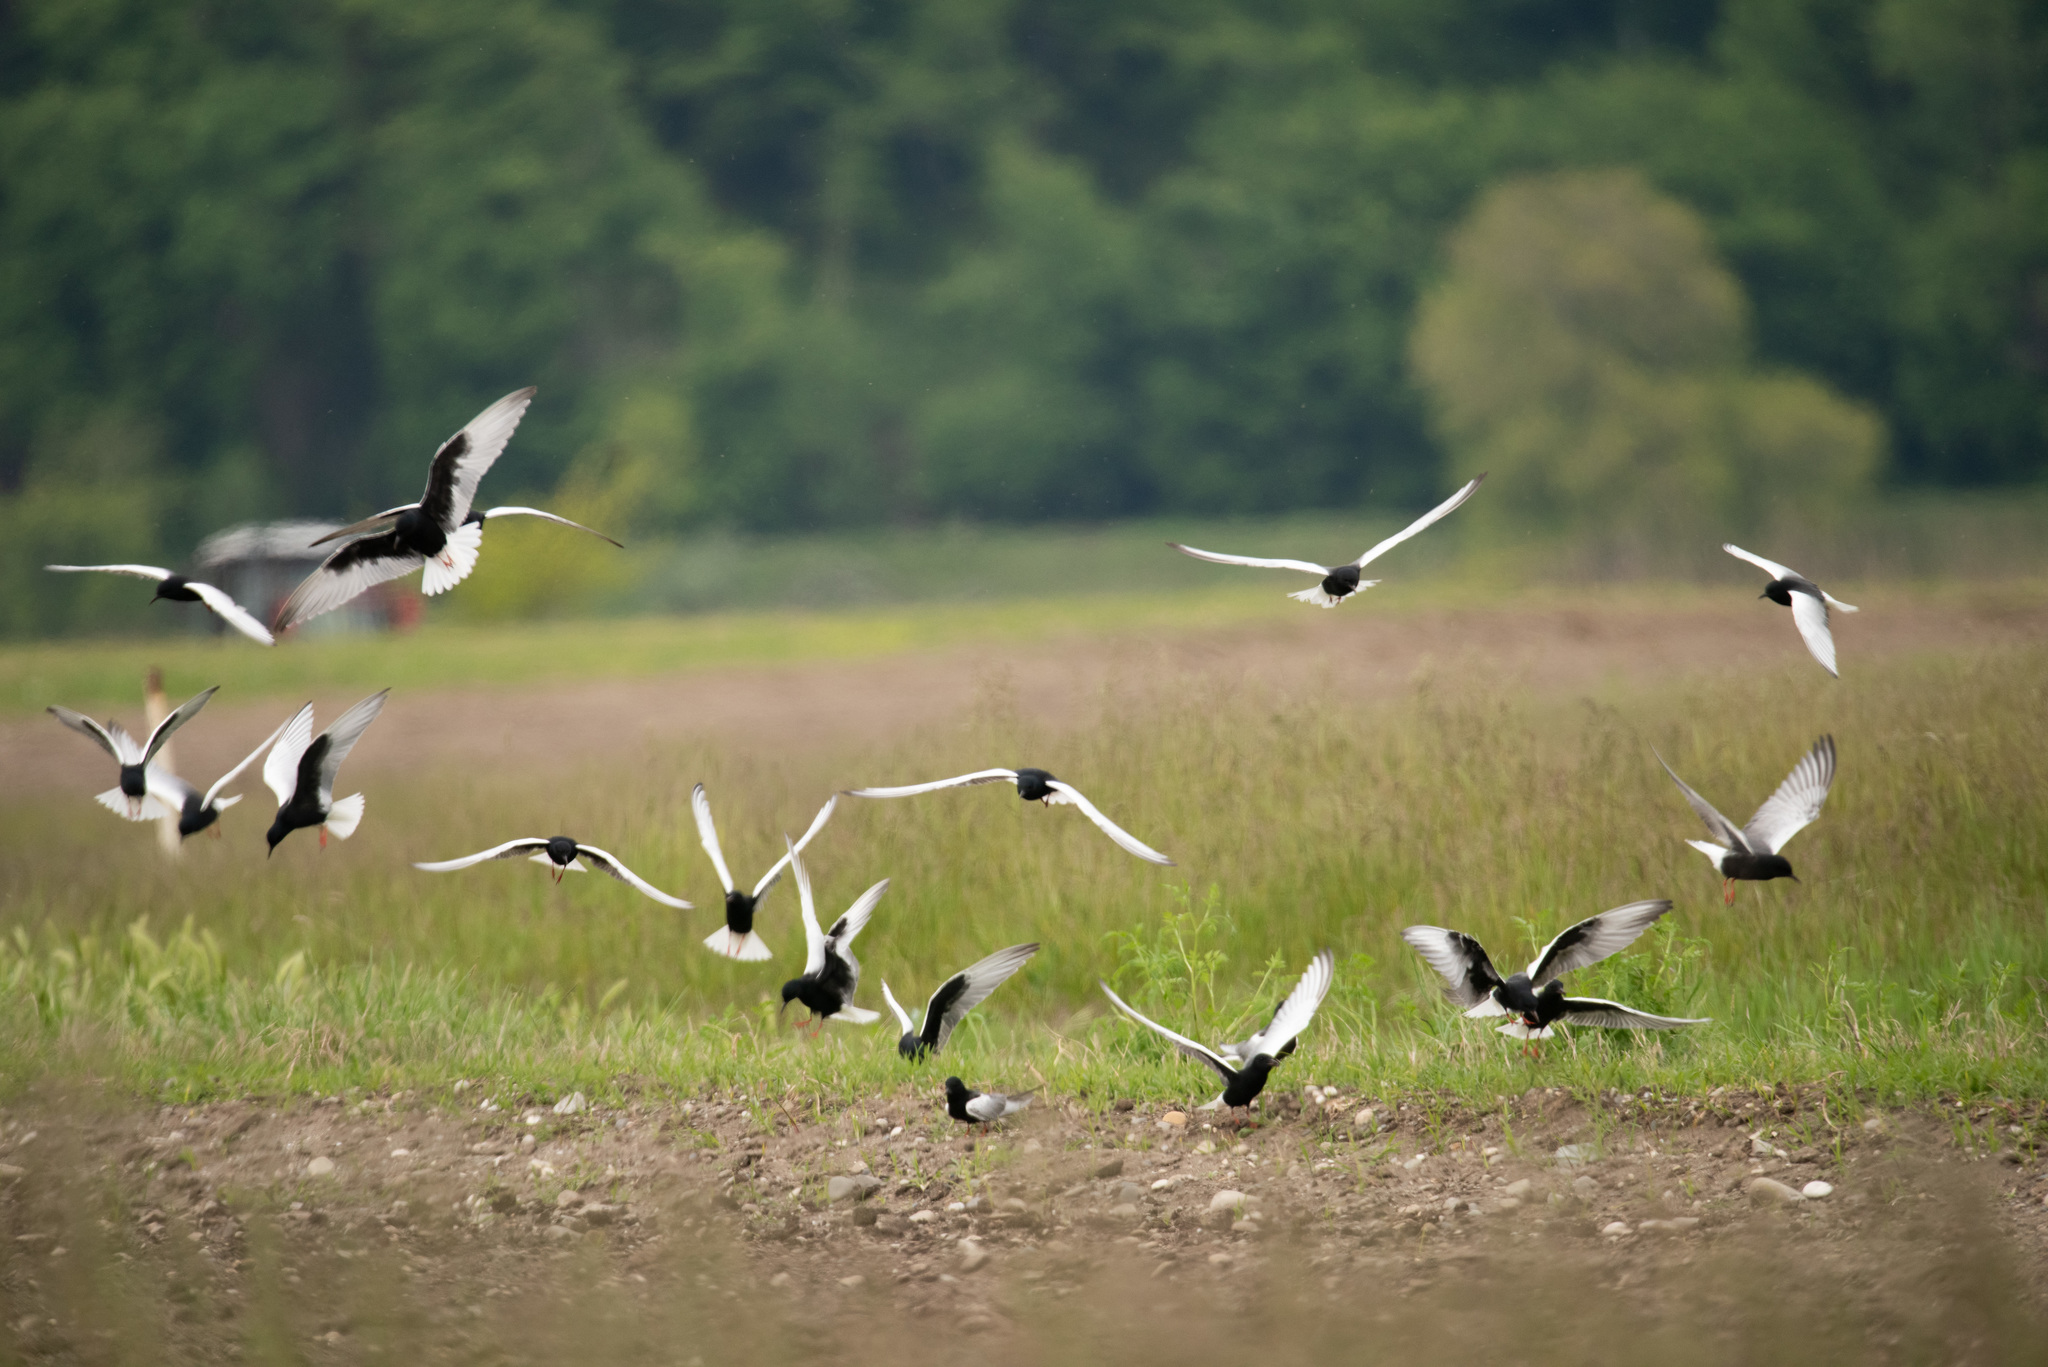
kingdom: Animalia
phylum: Chordata
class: Aves
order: Charadriiformes
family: Laridae
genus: Chlidonias
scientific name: Chlidonias leucopterus
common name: White-winged tern
